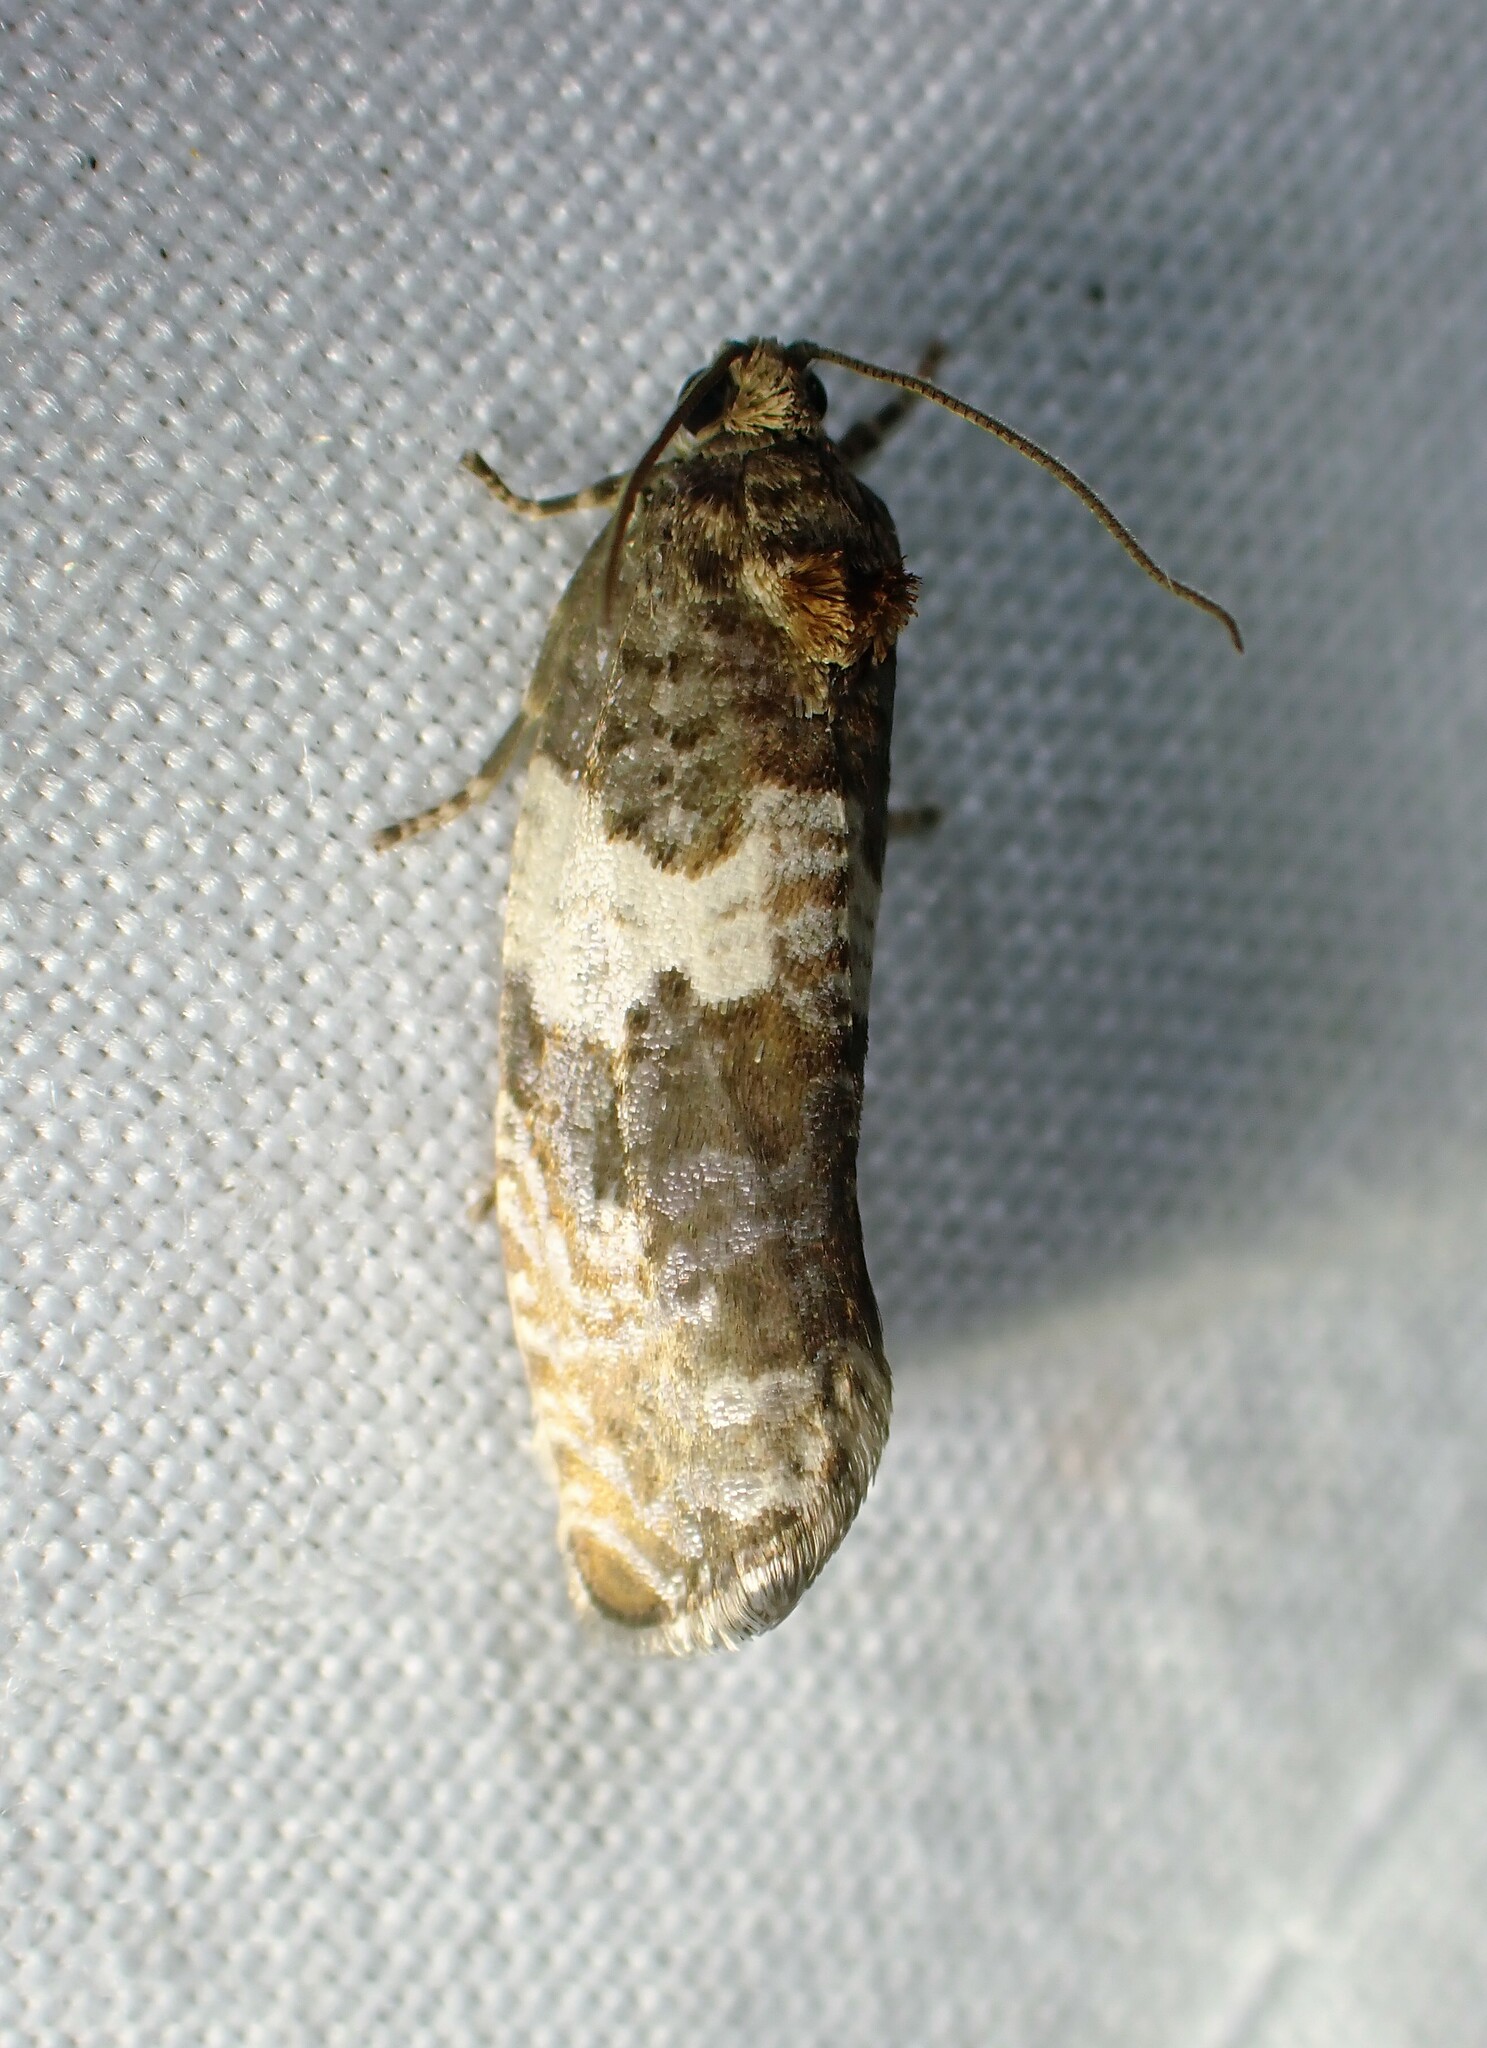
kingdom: Animalia
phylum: Arthropoda
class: Insecta
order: Lepidoptera
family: Tortricidae
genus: Pseudosciaphila
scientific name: Pseudosciaphila duplex
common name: Poplar leafroller moth
